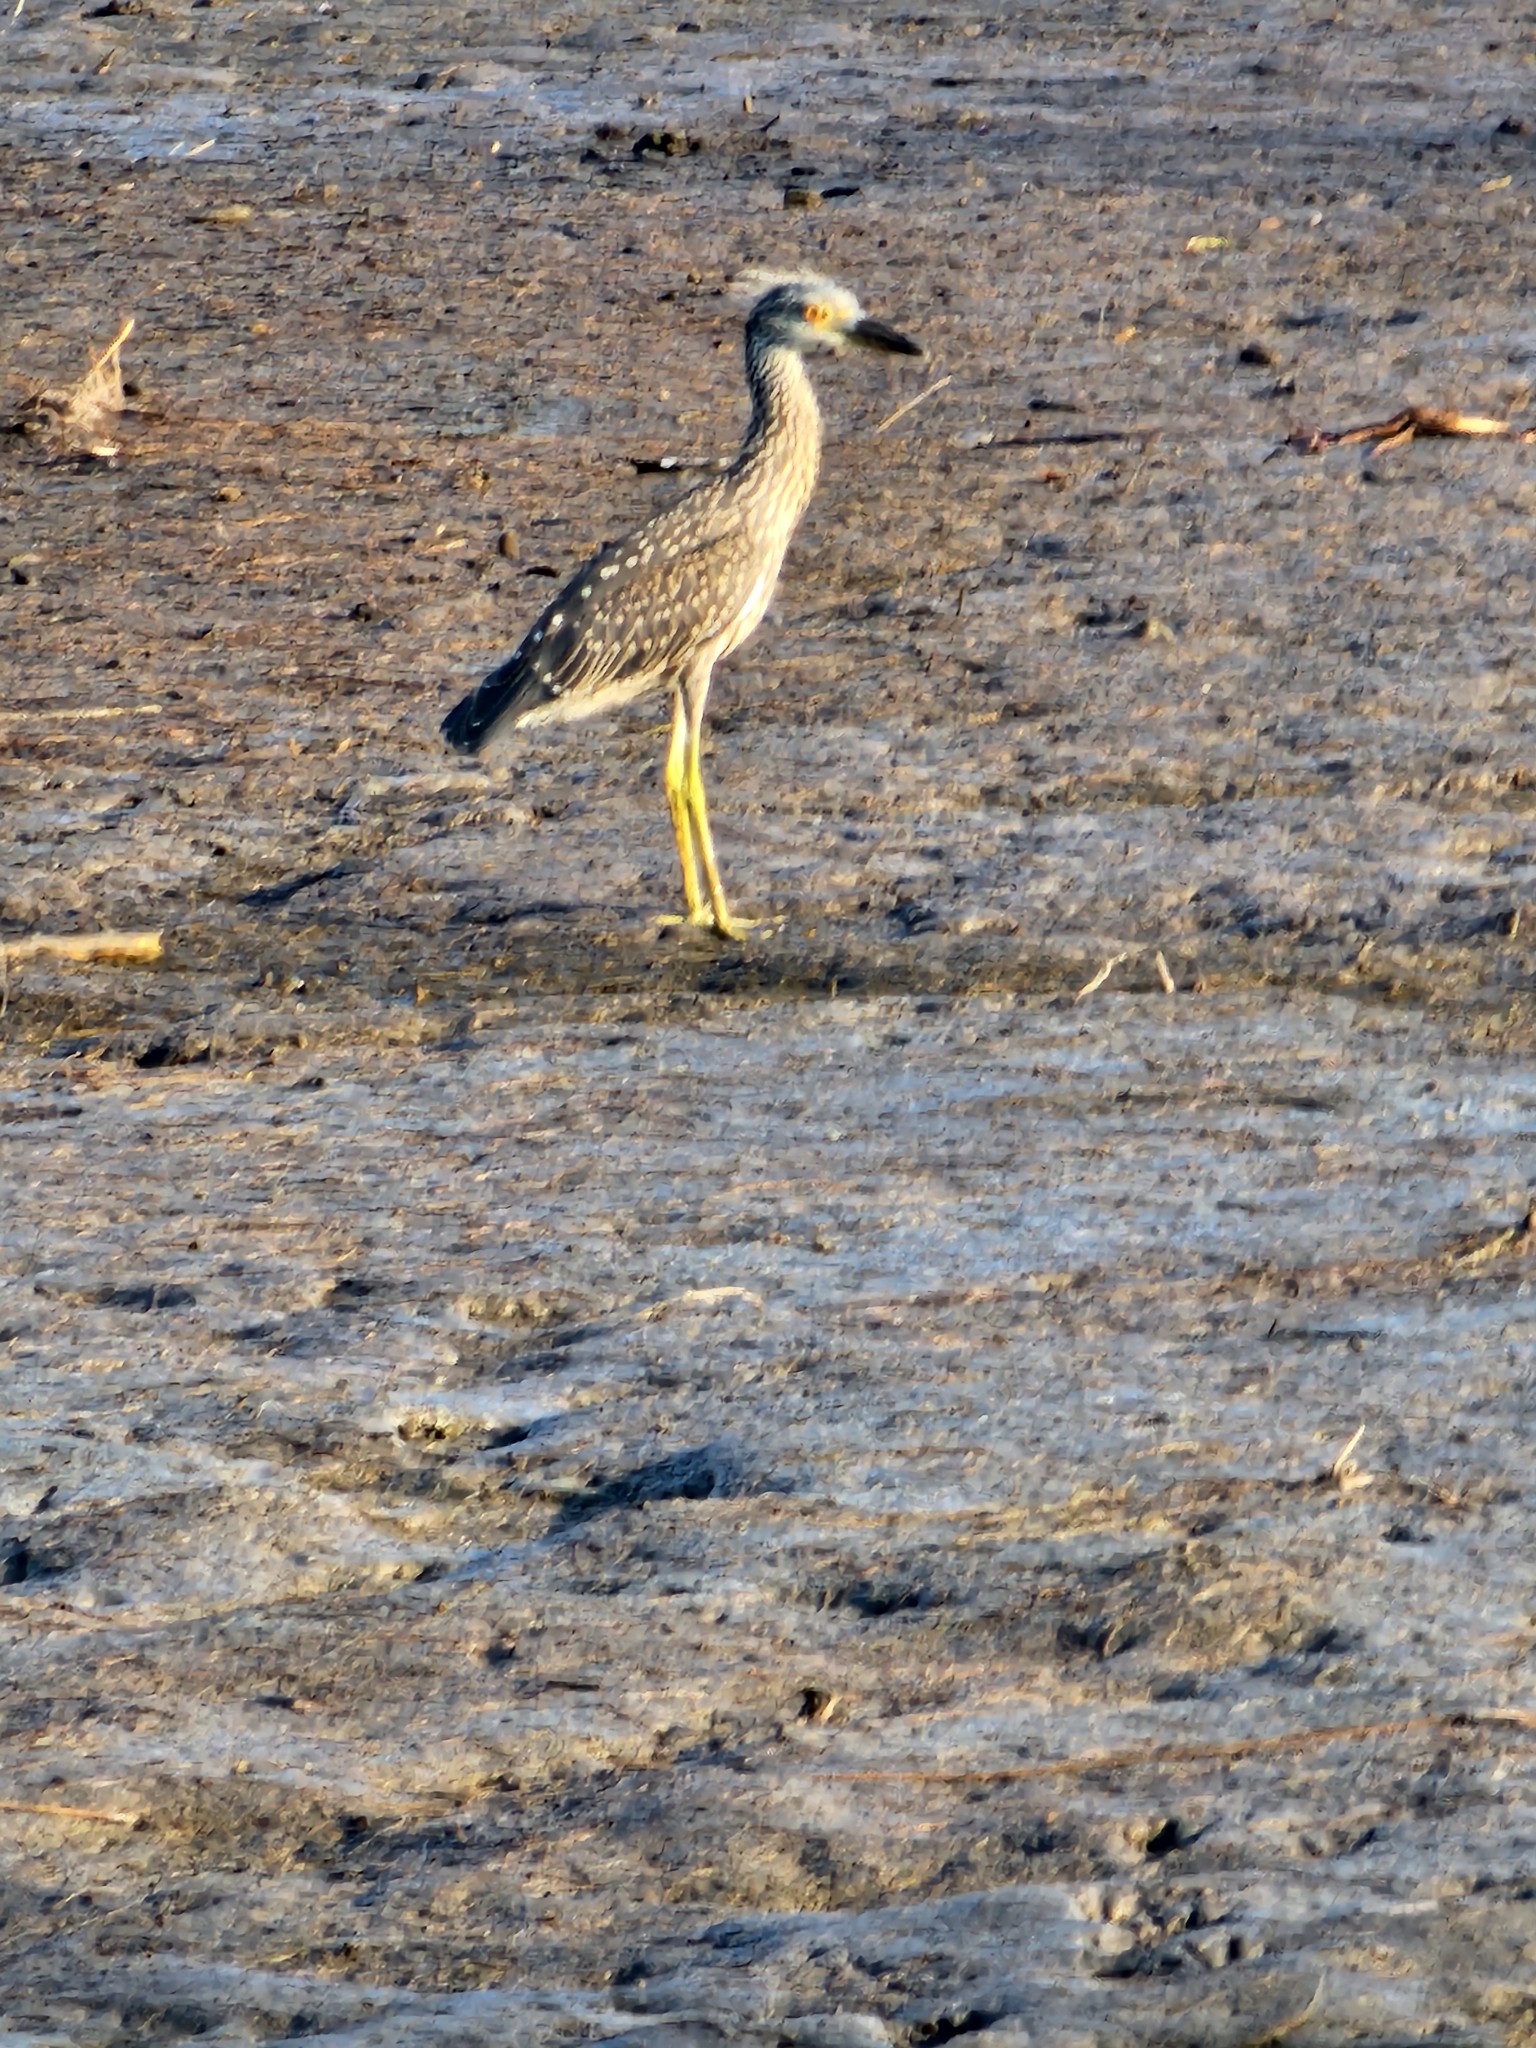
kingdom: Animalia
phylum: Chordata
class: Aves
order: Pelecaniformes
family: Ardeidae
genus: Nyctanassa
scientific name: Nyctanassa violacea
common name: Yellow-crowned night heron
